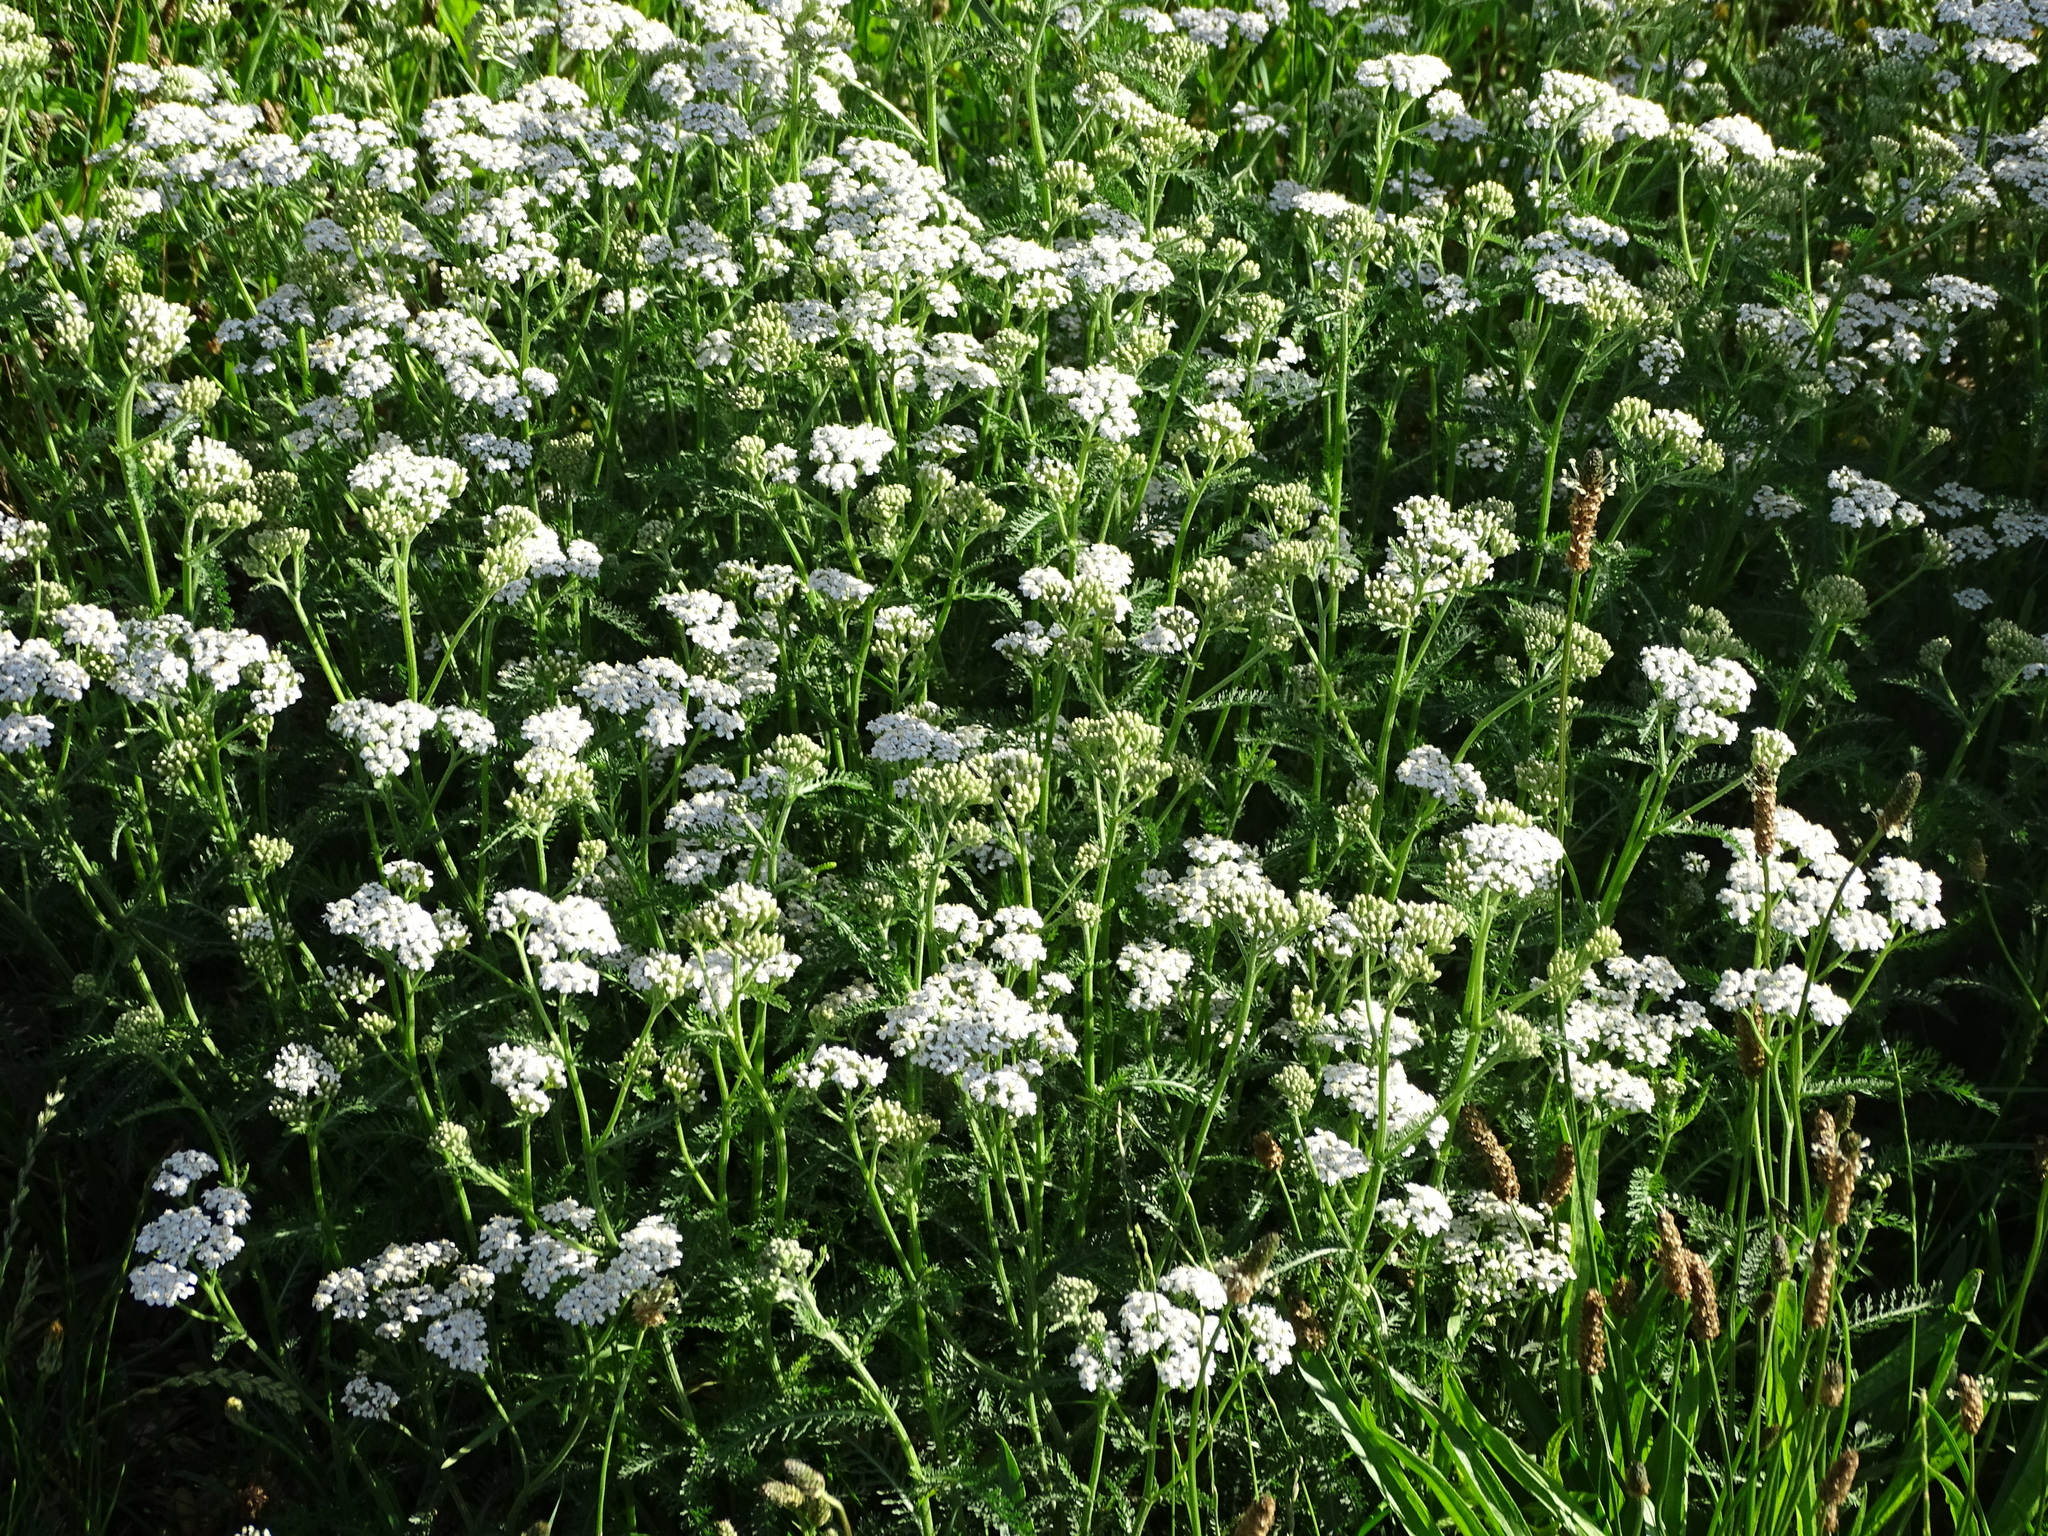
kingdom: Plantae
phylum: Tracheophyta
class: Magnoliopsida
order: Asterales
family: Asteraceae
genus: Achillea
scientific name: Achillea millefolium
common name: Yarrow
